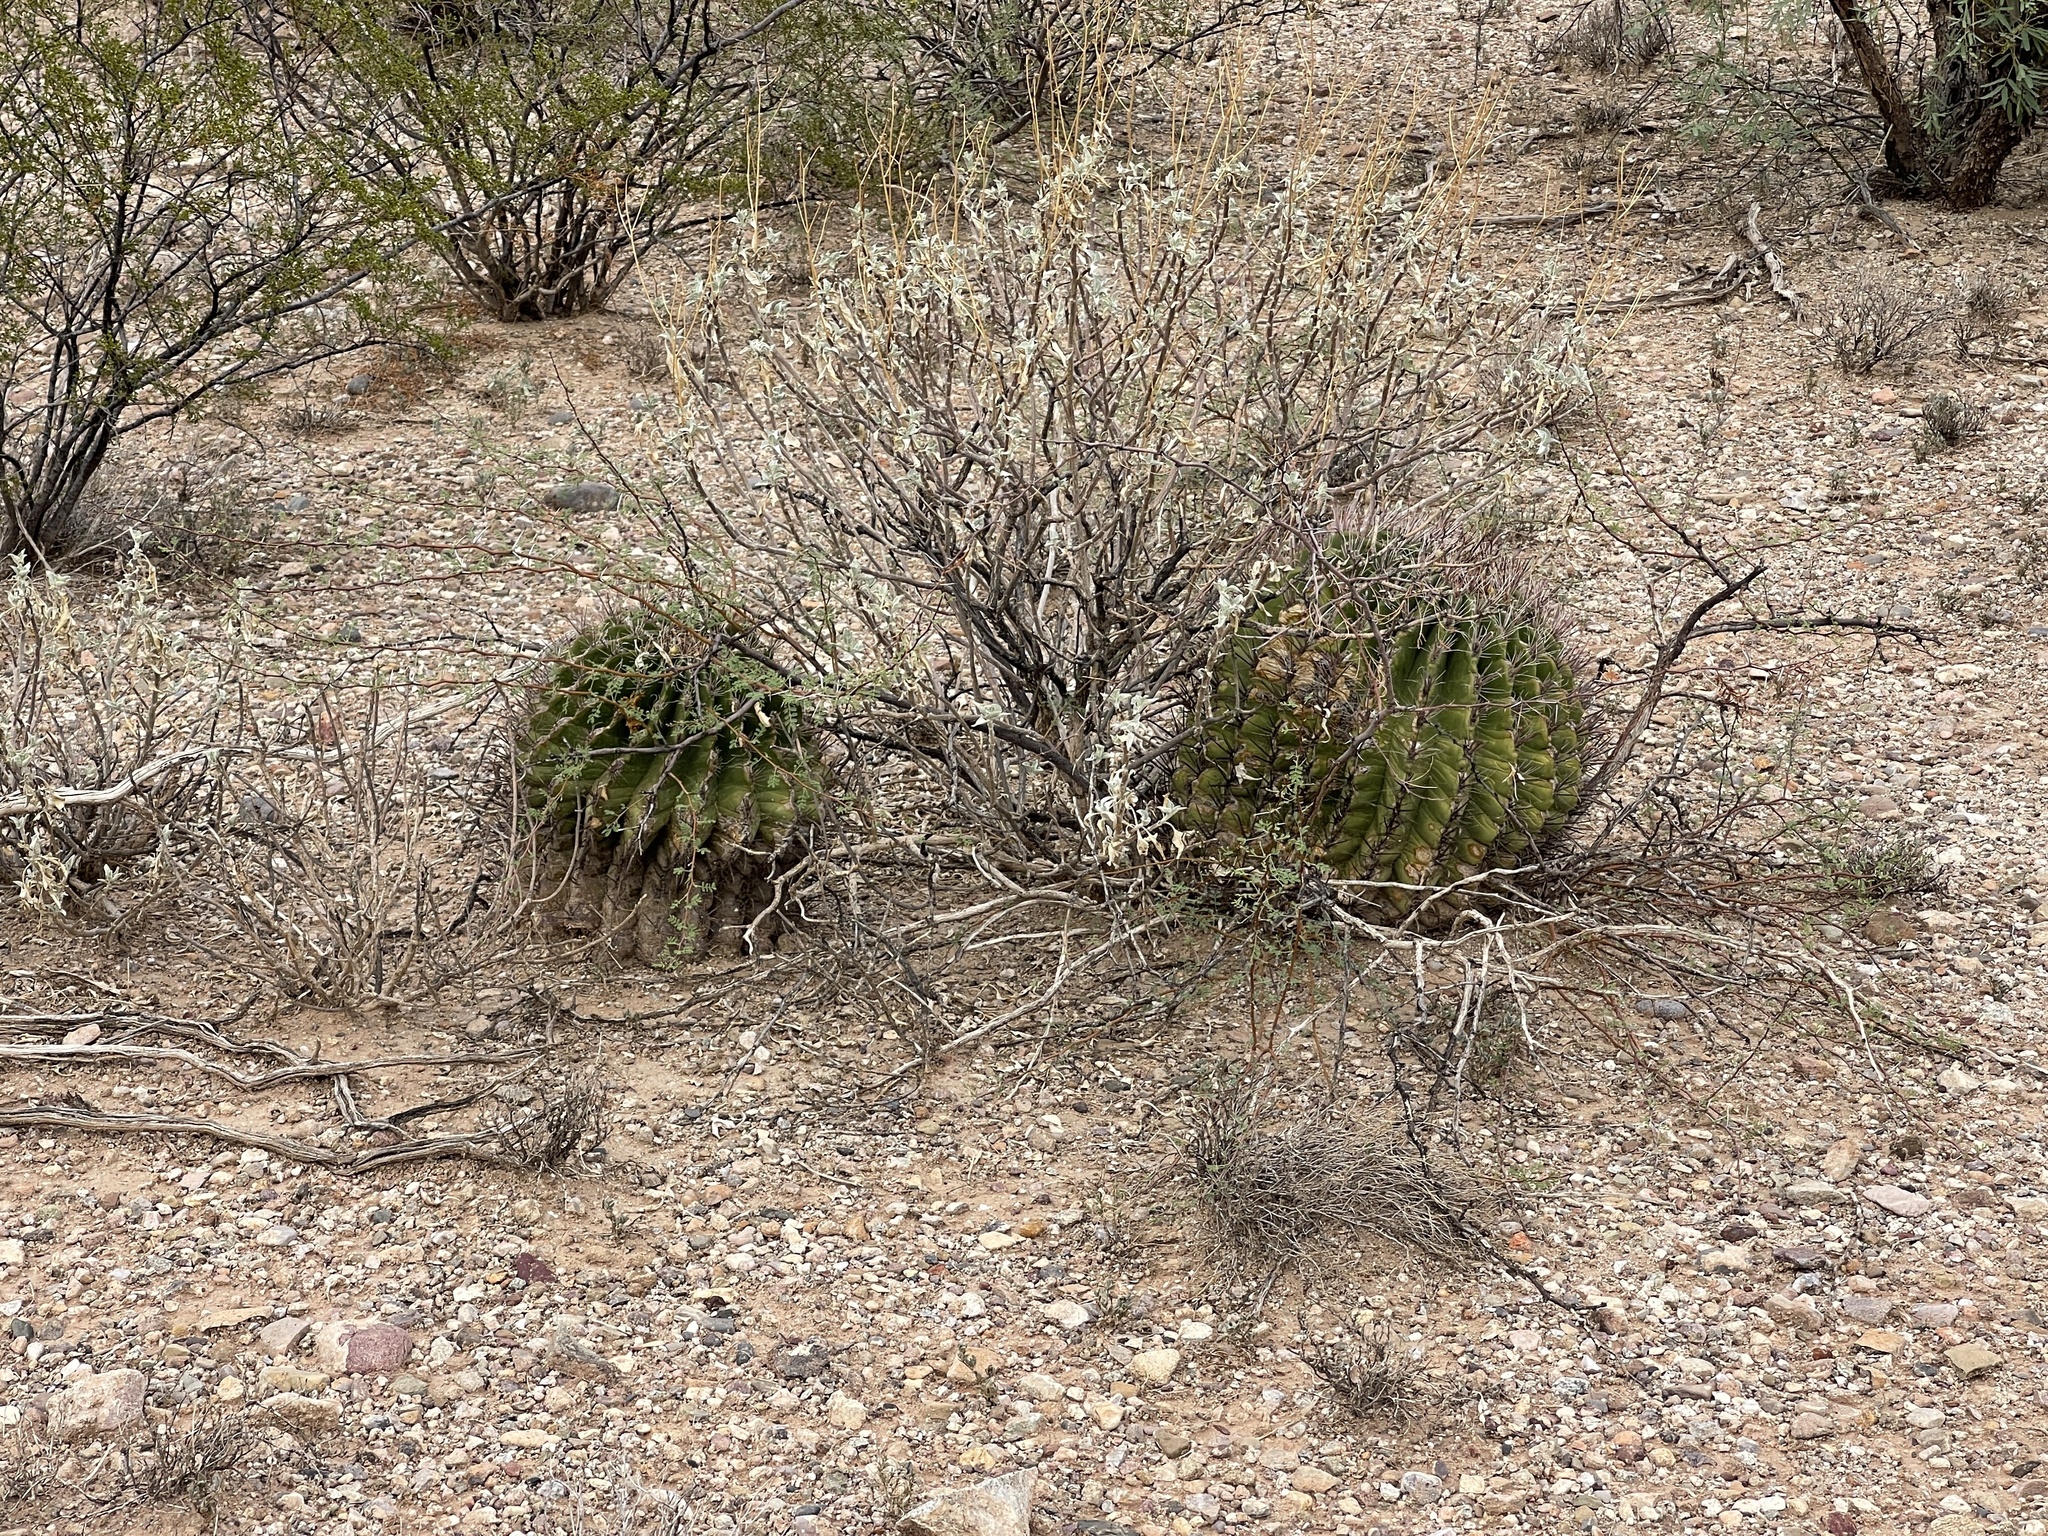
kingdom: Plantae
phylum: Tracheophyta
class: Magnoliopsida
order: Caryophyllales
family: Cactaceae
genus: Ferocactus
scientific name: Ferocactus wislizeni
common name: Candy barrel cactus
